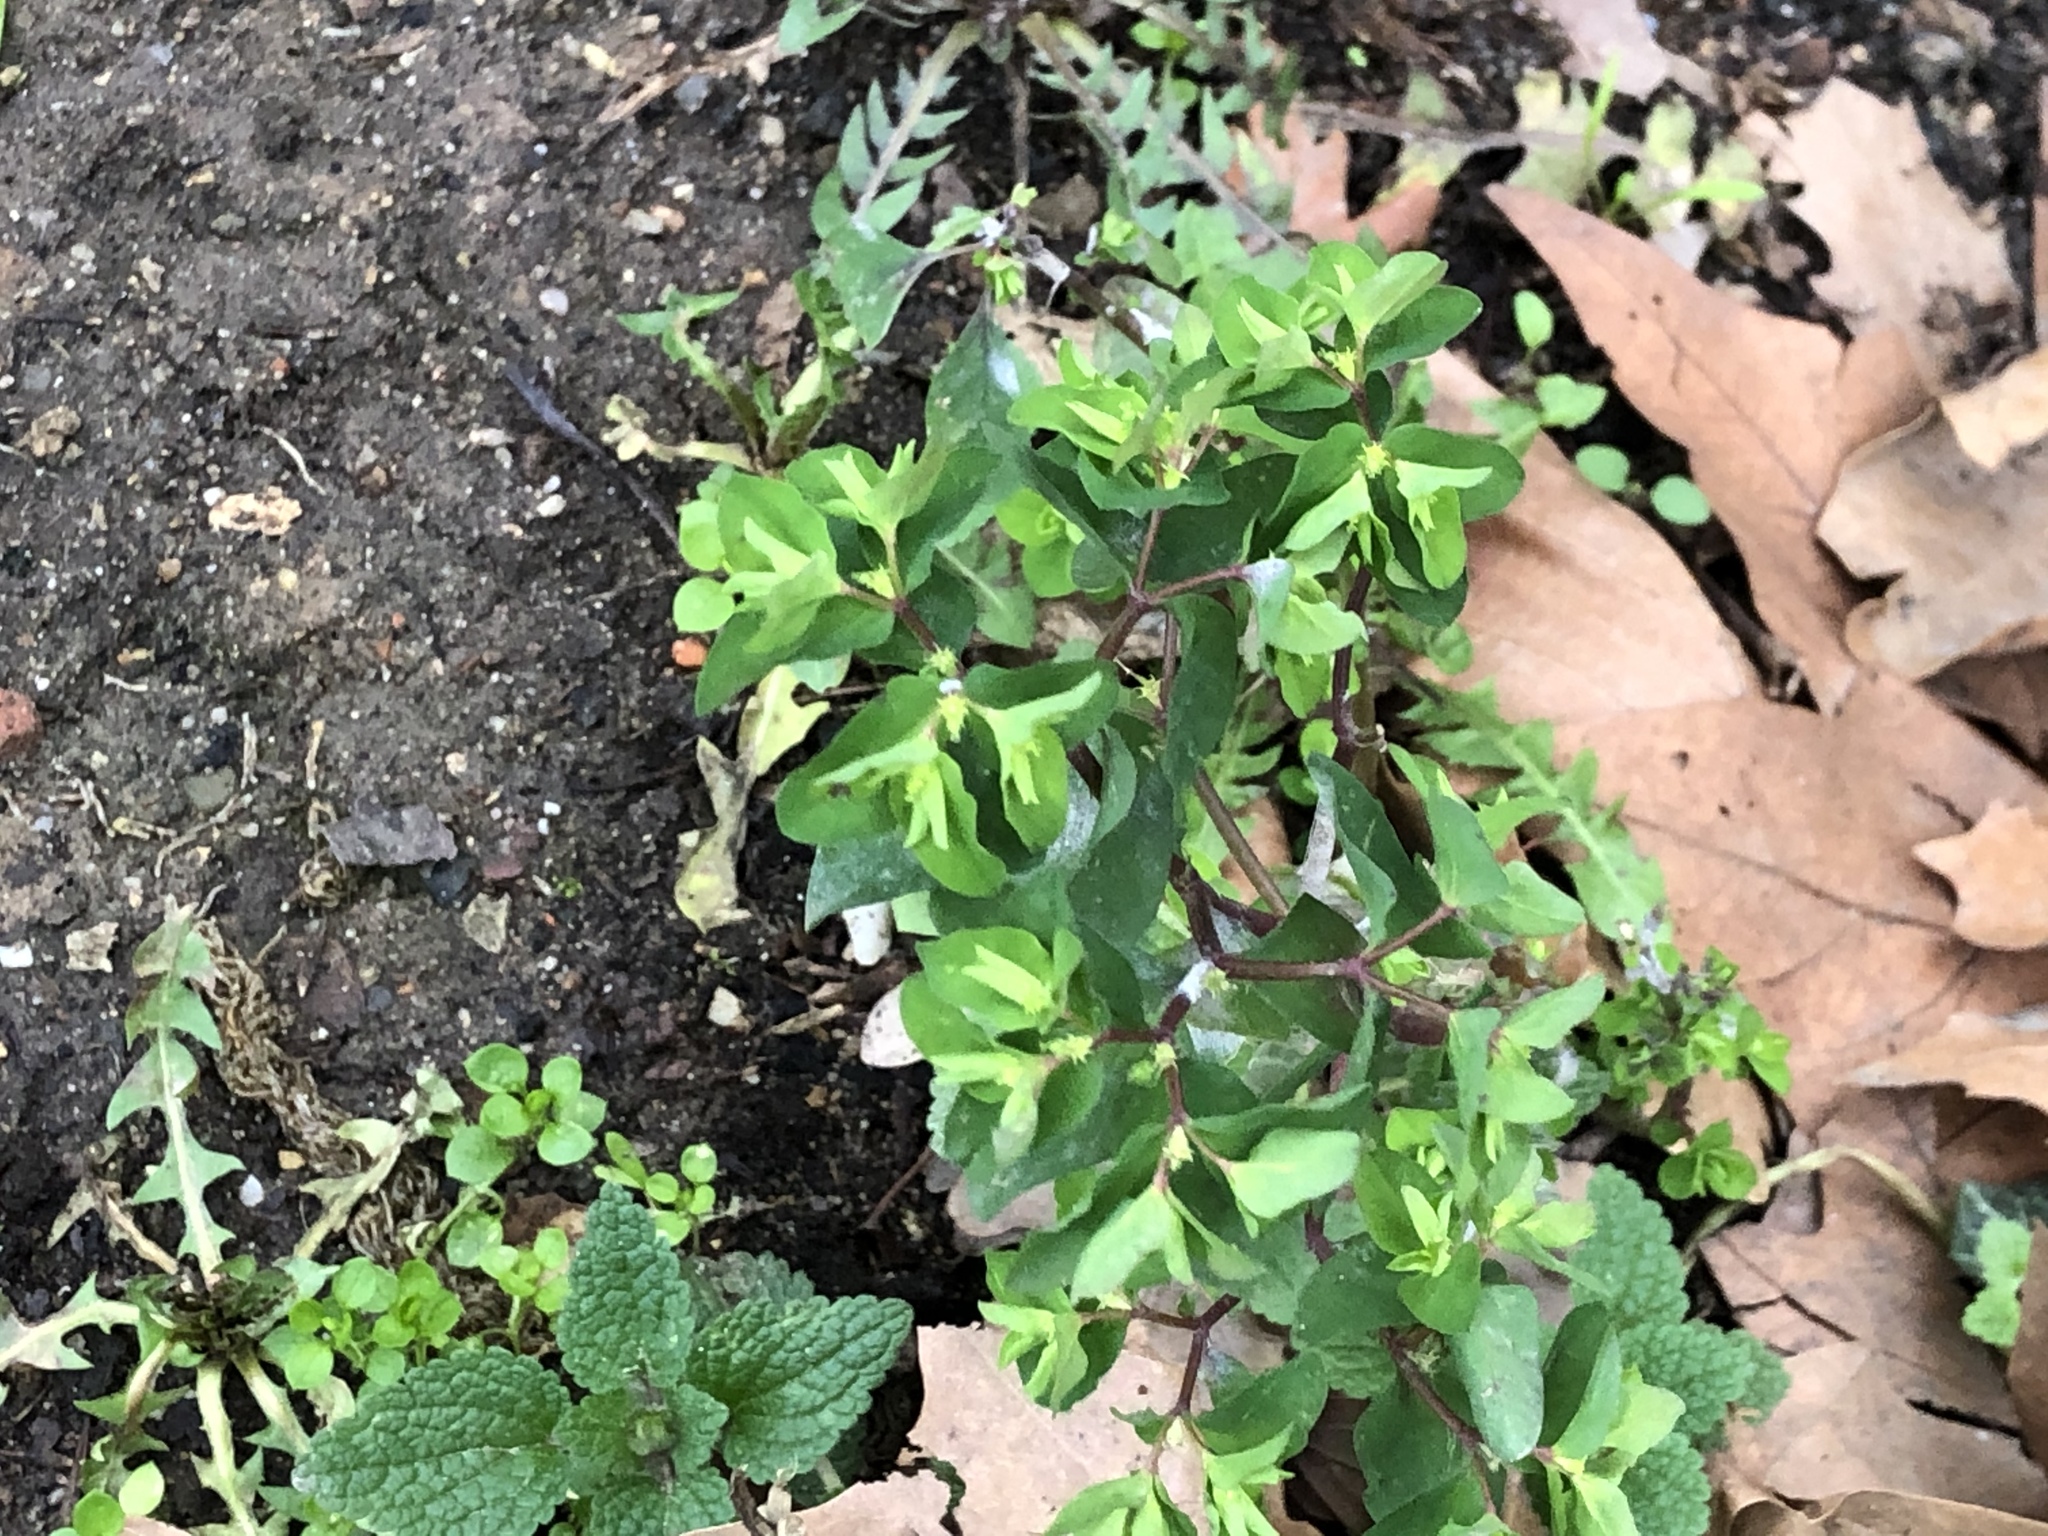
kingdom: Plantae
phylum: Tracheophyta
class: Magnoliopsida
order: Malpighiales
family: Euphorbiaceae
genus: Euphorbia
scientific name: Euphorbia peplus
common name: Petty spurge
